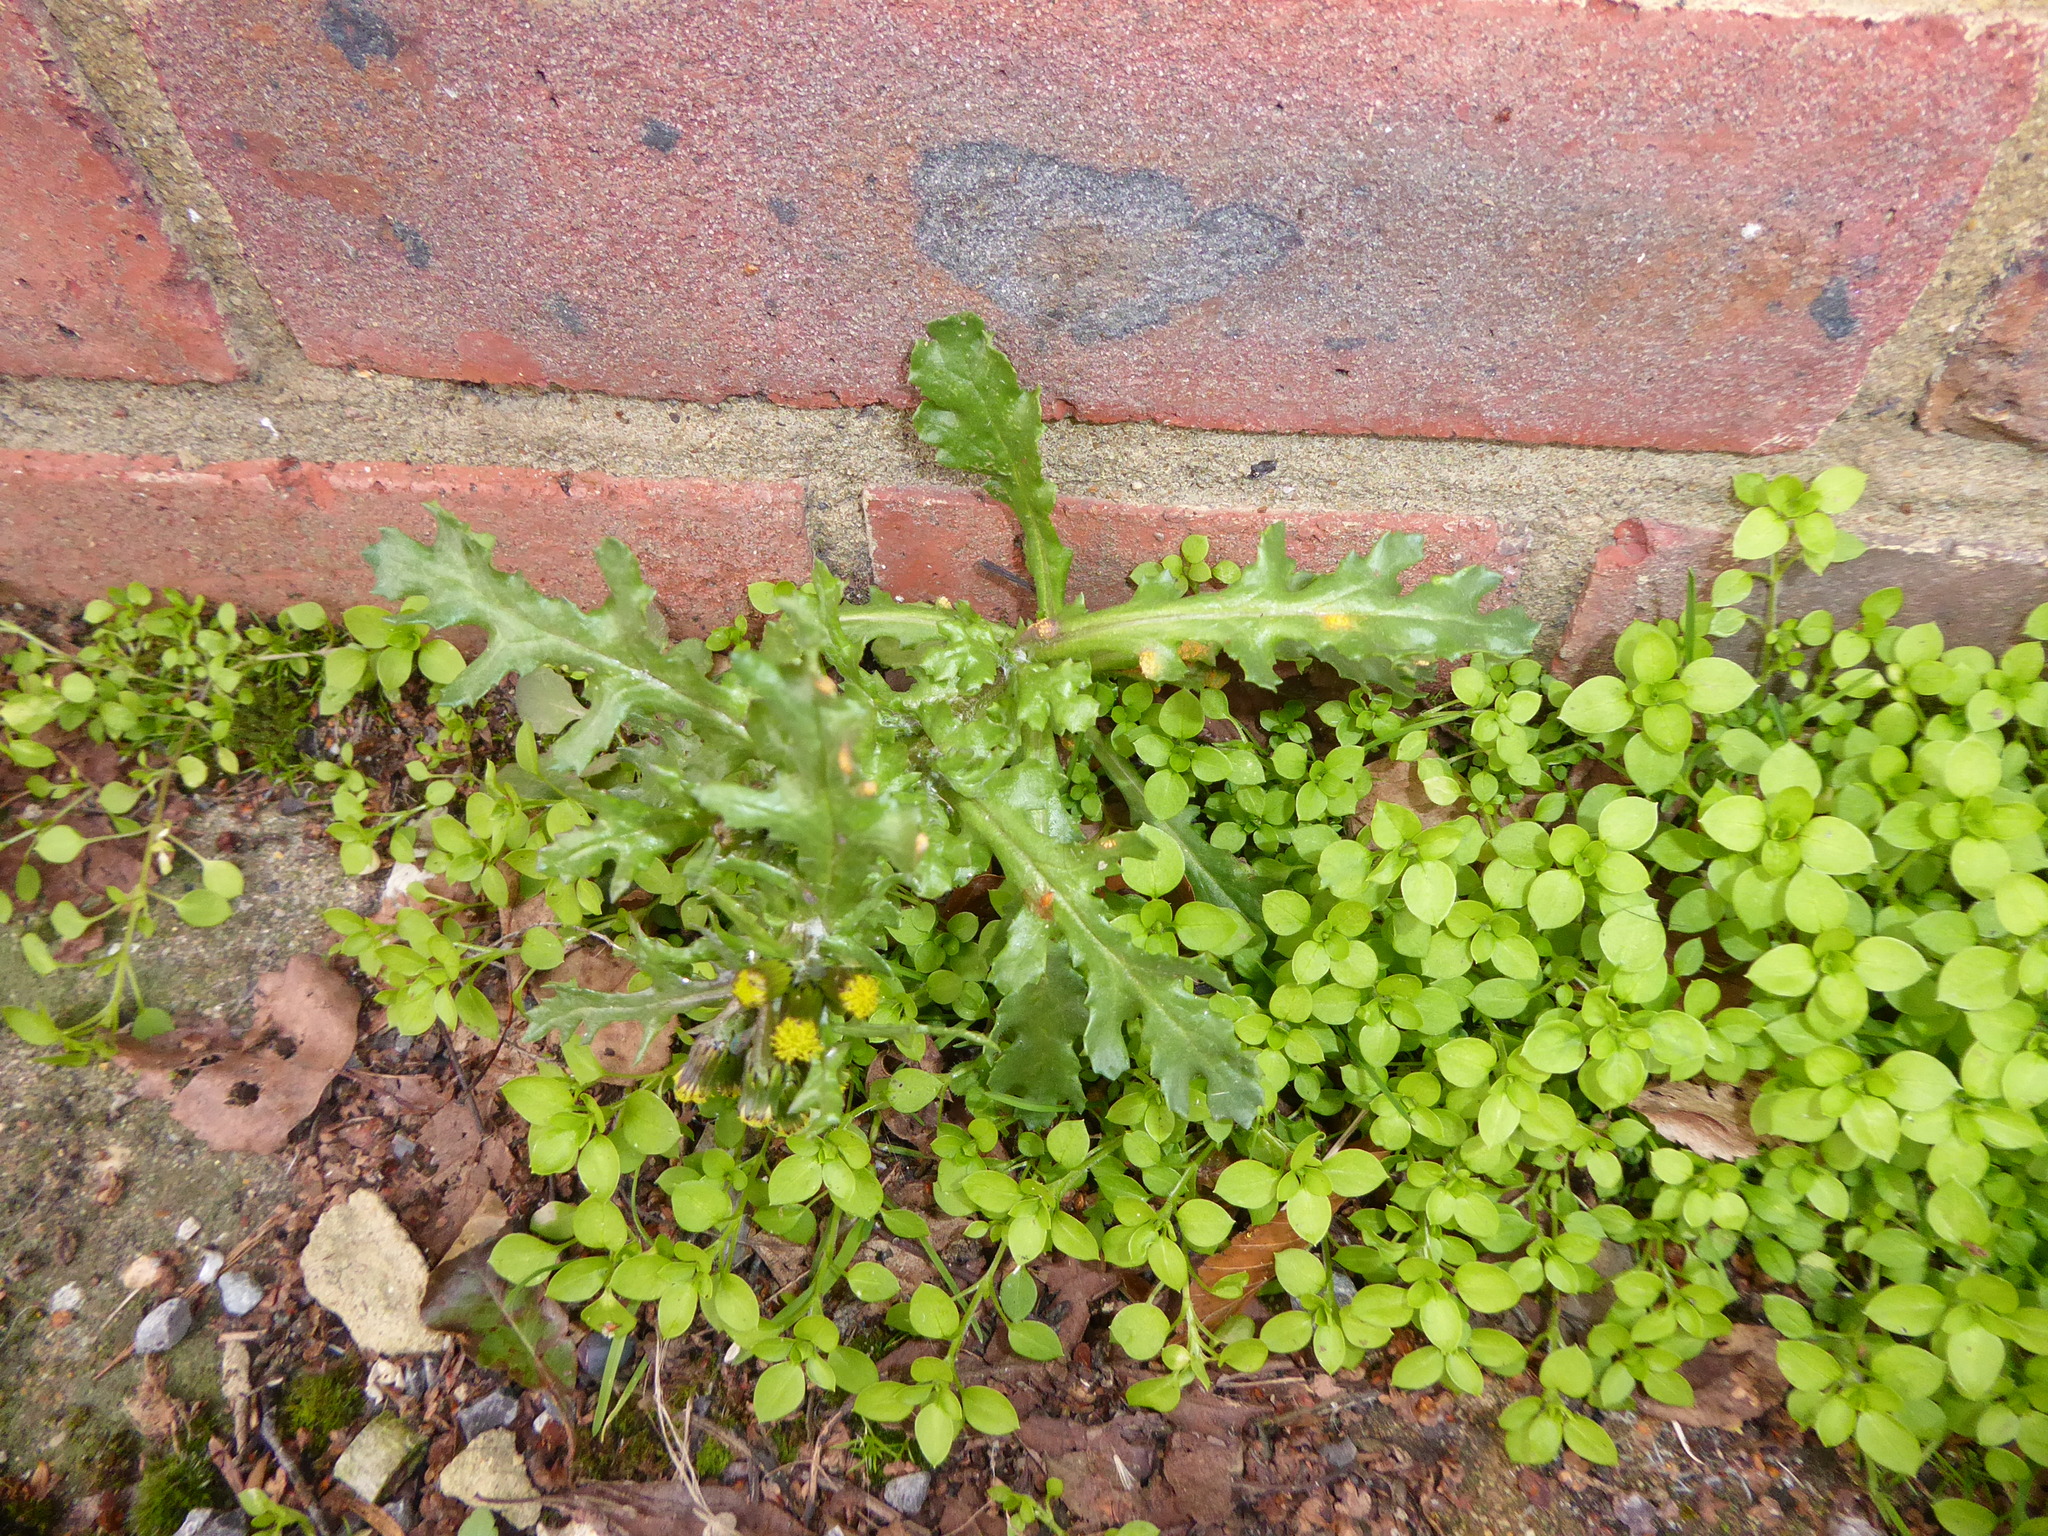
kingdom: Plantae
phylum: Tracheophyta
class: Magnoliopsida
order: Asterales
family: Asteraceae
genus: Senecio
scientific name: Senecio vulgaris
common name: Old-man-in-the-spring
